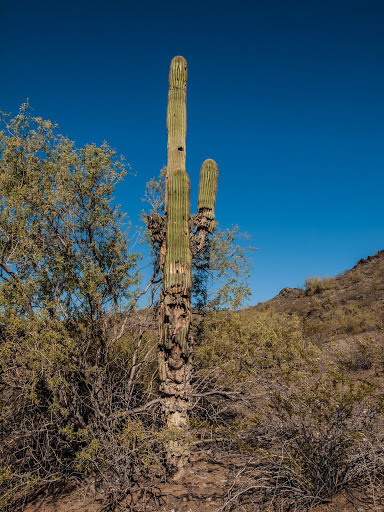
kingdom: Plantae
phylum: Tracheophyta
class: Magnoliopsida
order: Caryophyllales
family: Cactaceae
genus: Carnegiea
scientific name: Carnegiea gigantea
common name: Saguaro
